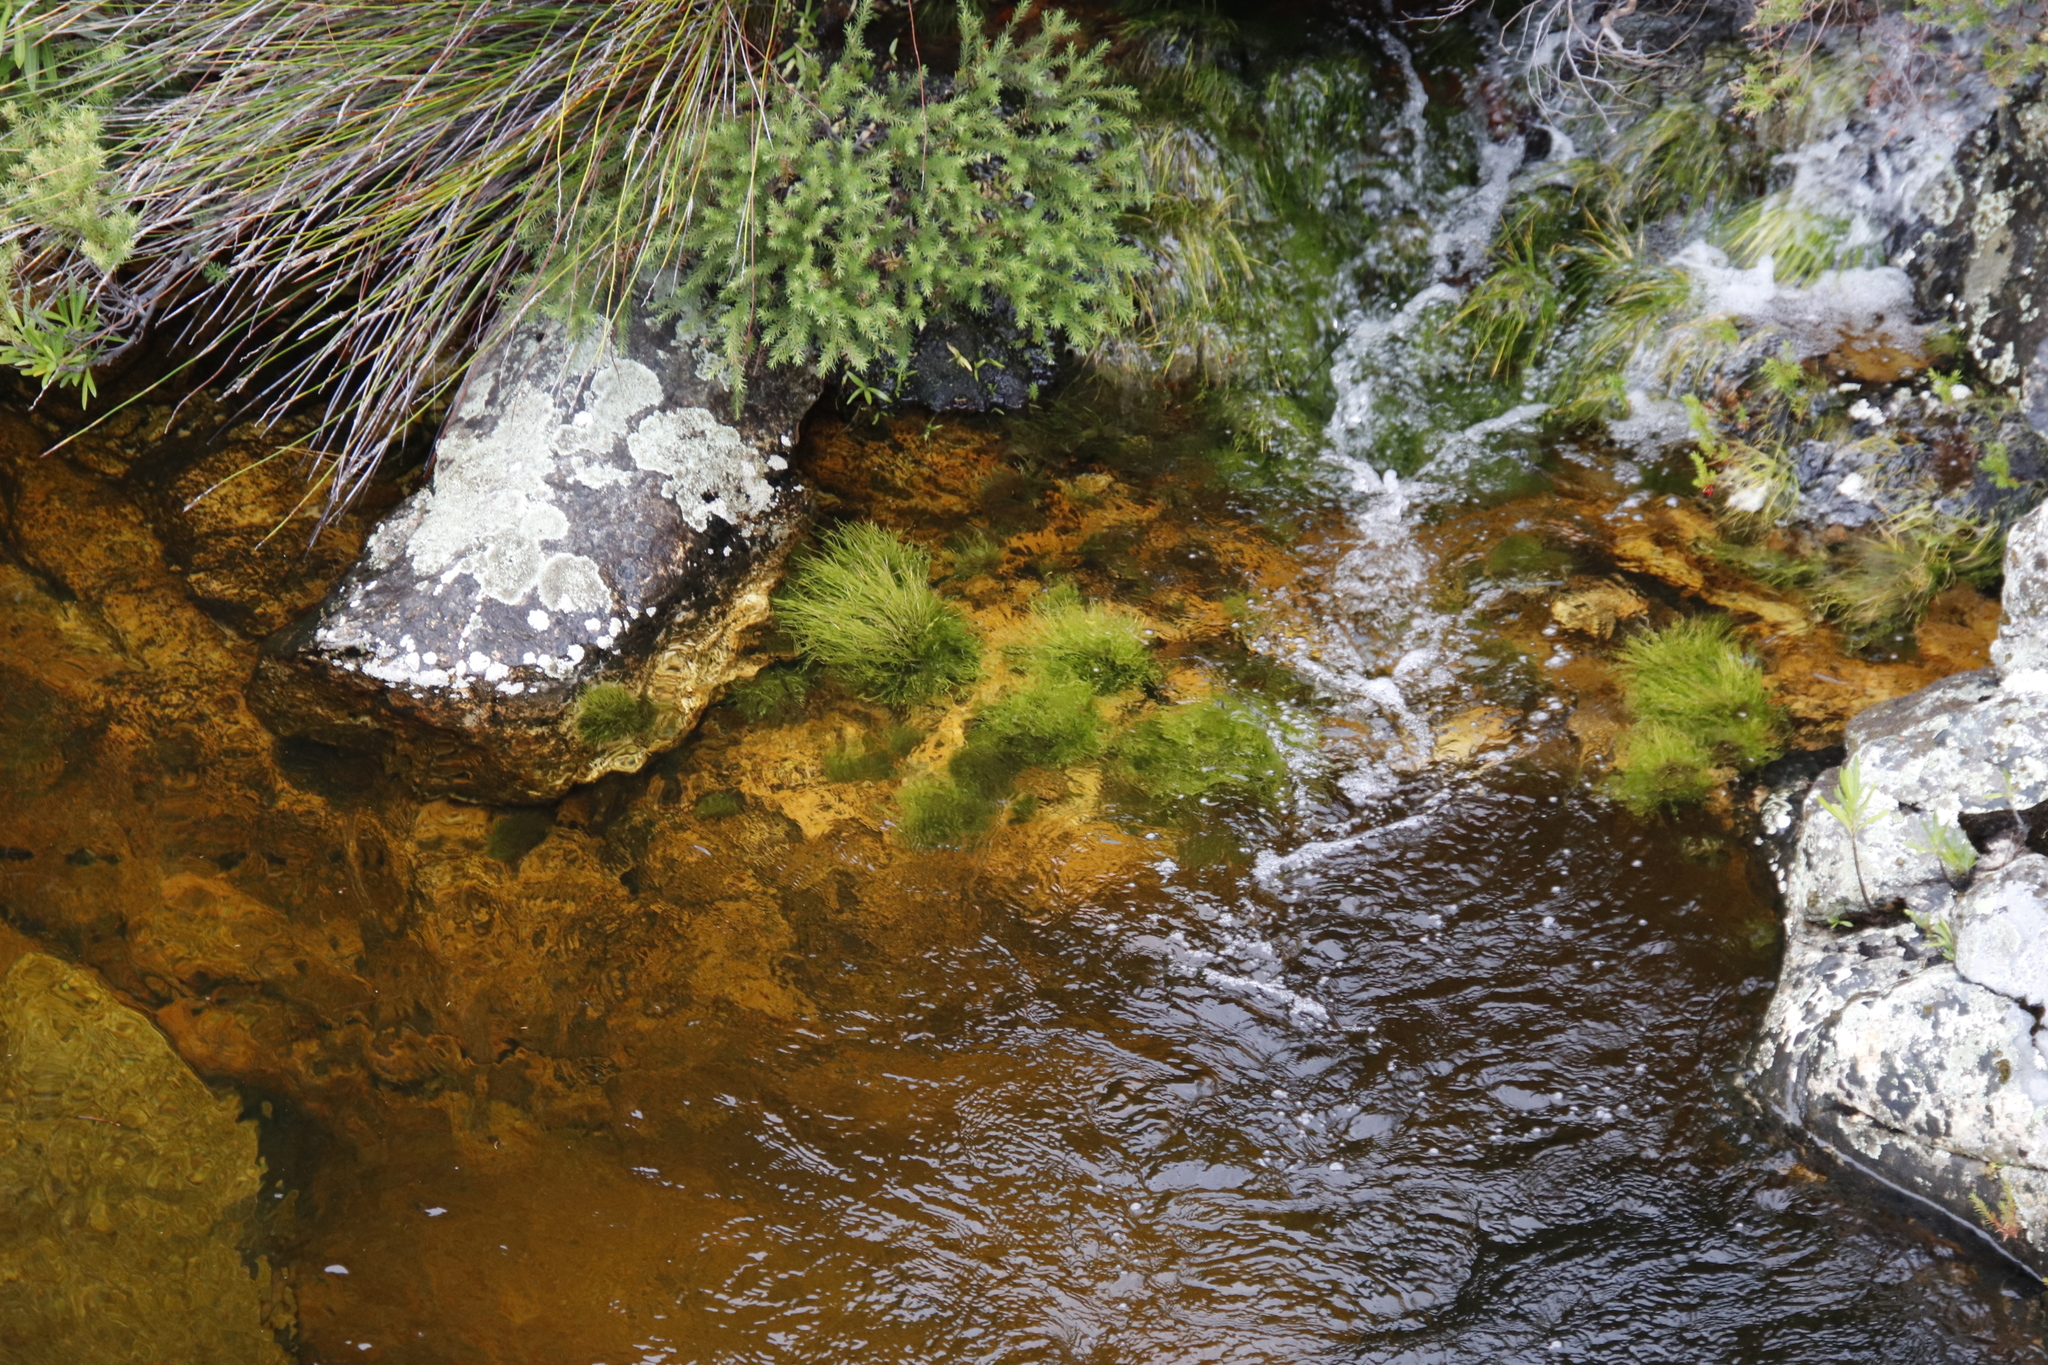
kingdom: Plantae
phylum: Tracheophyta
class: Liliopsida
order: Poales
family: Cyperaceae
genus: Isolepis
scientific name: Isolepis digitata
